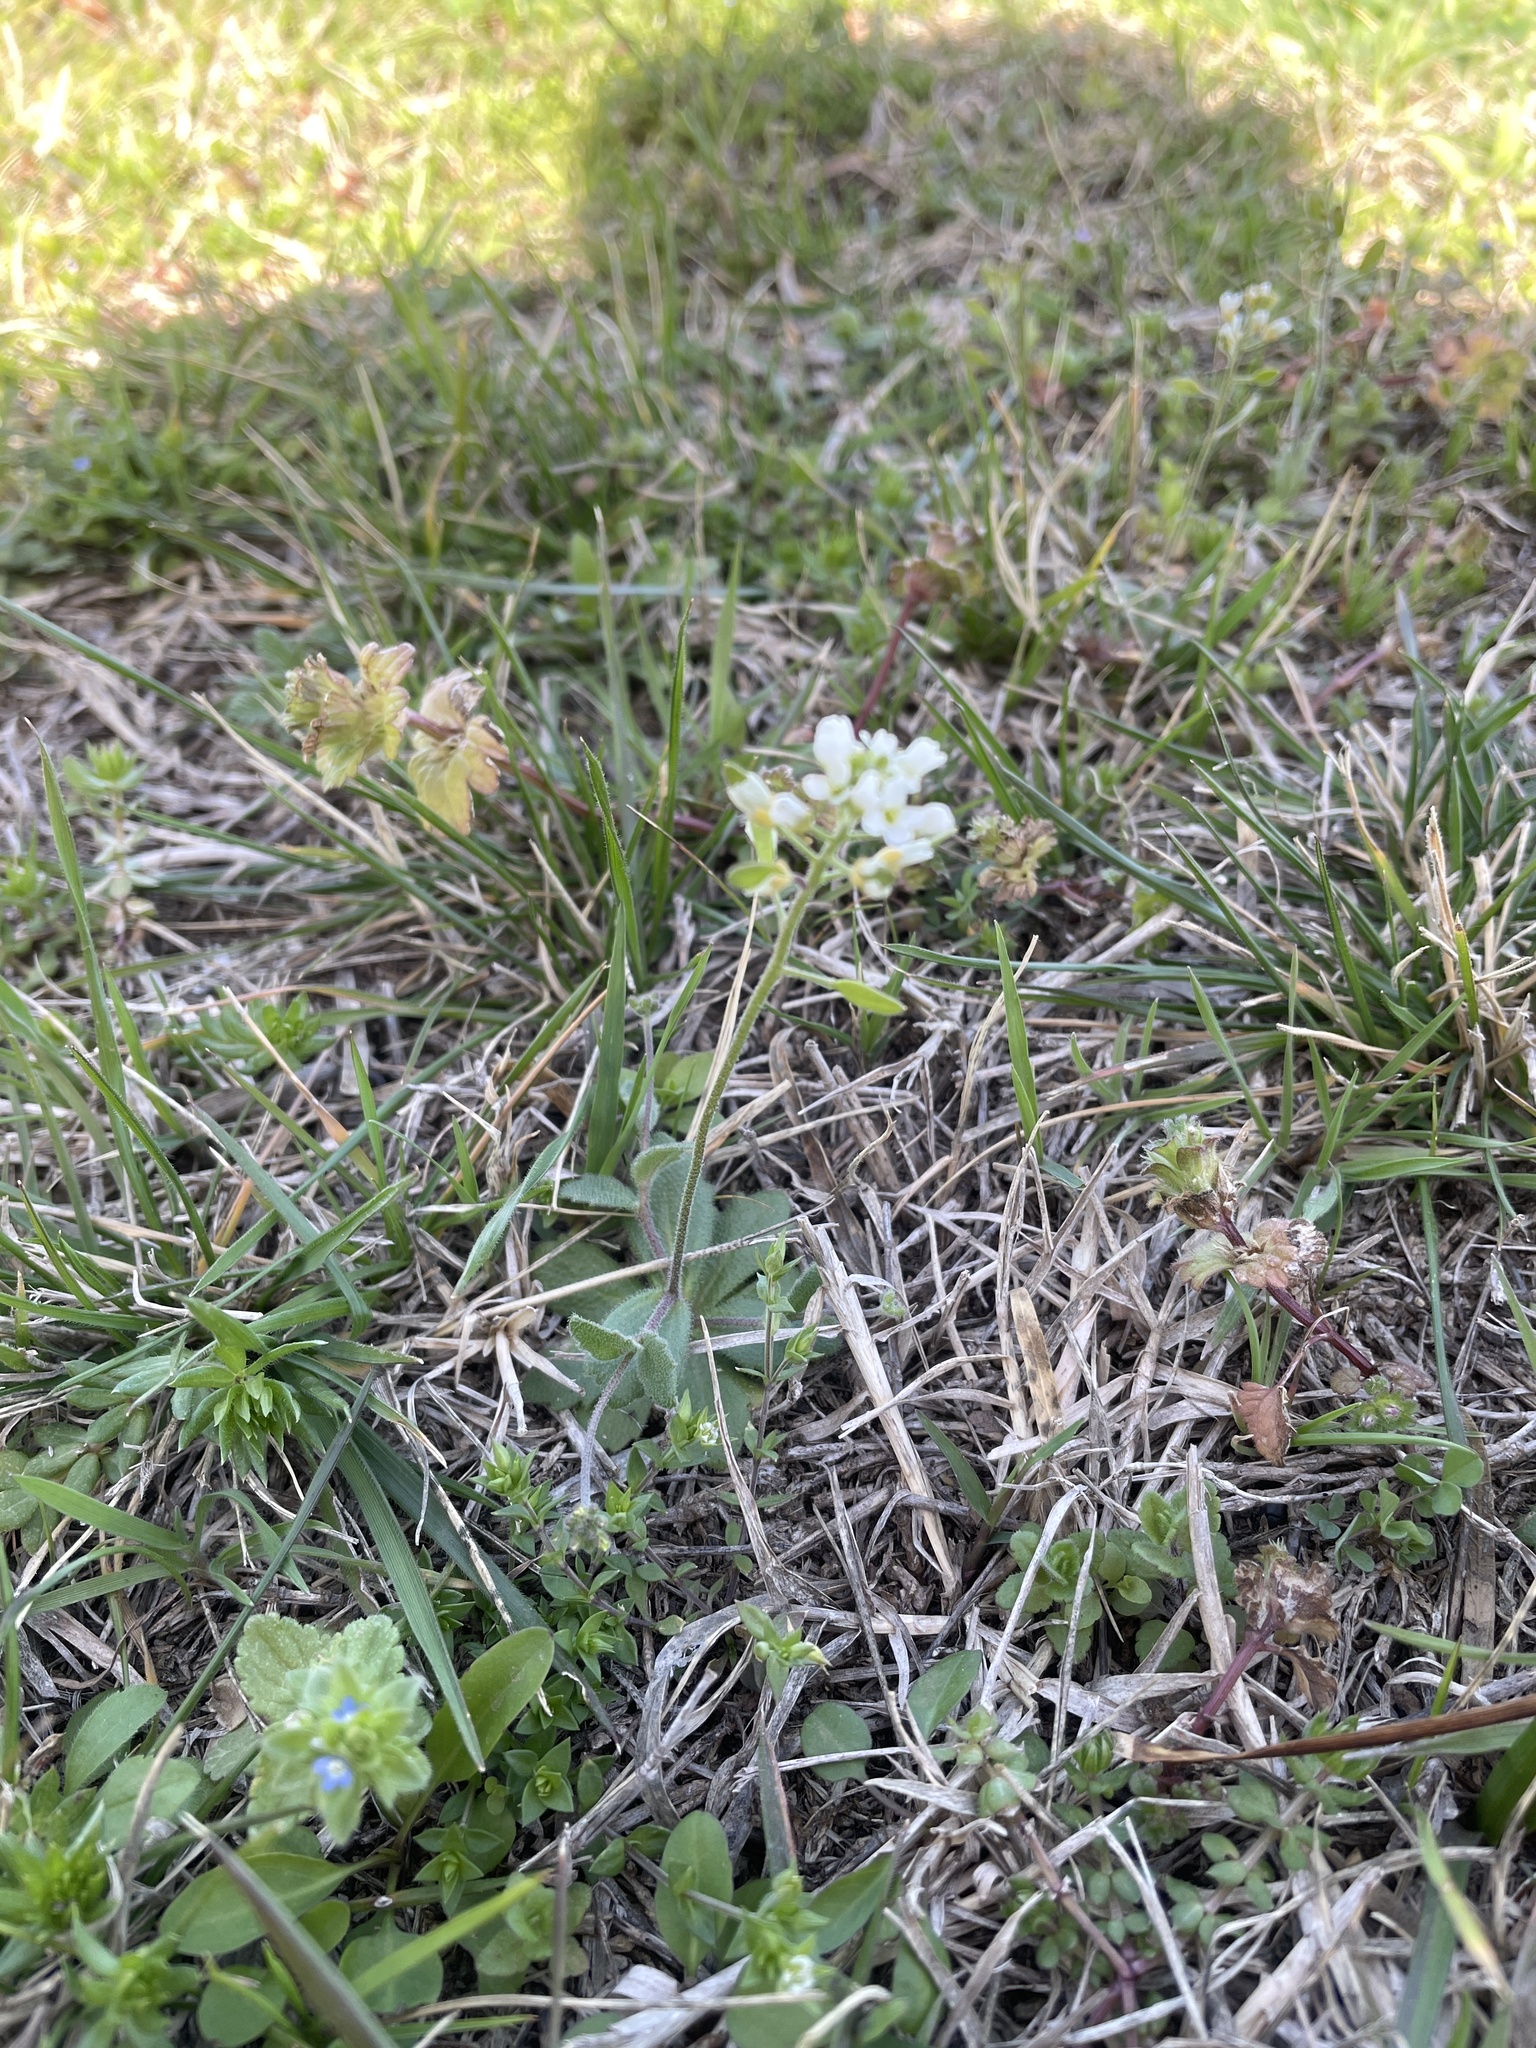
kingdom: Plantae
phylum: Tracheophyta
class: Magnoliopsida
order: Brassicales
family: Brassicaceae
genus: Tomostima
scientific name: Tomostima cuneifolia
